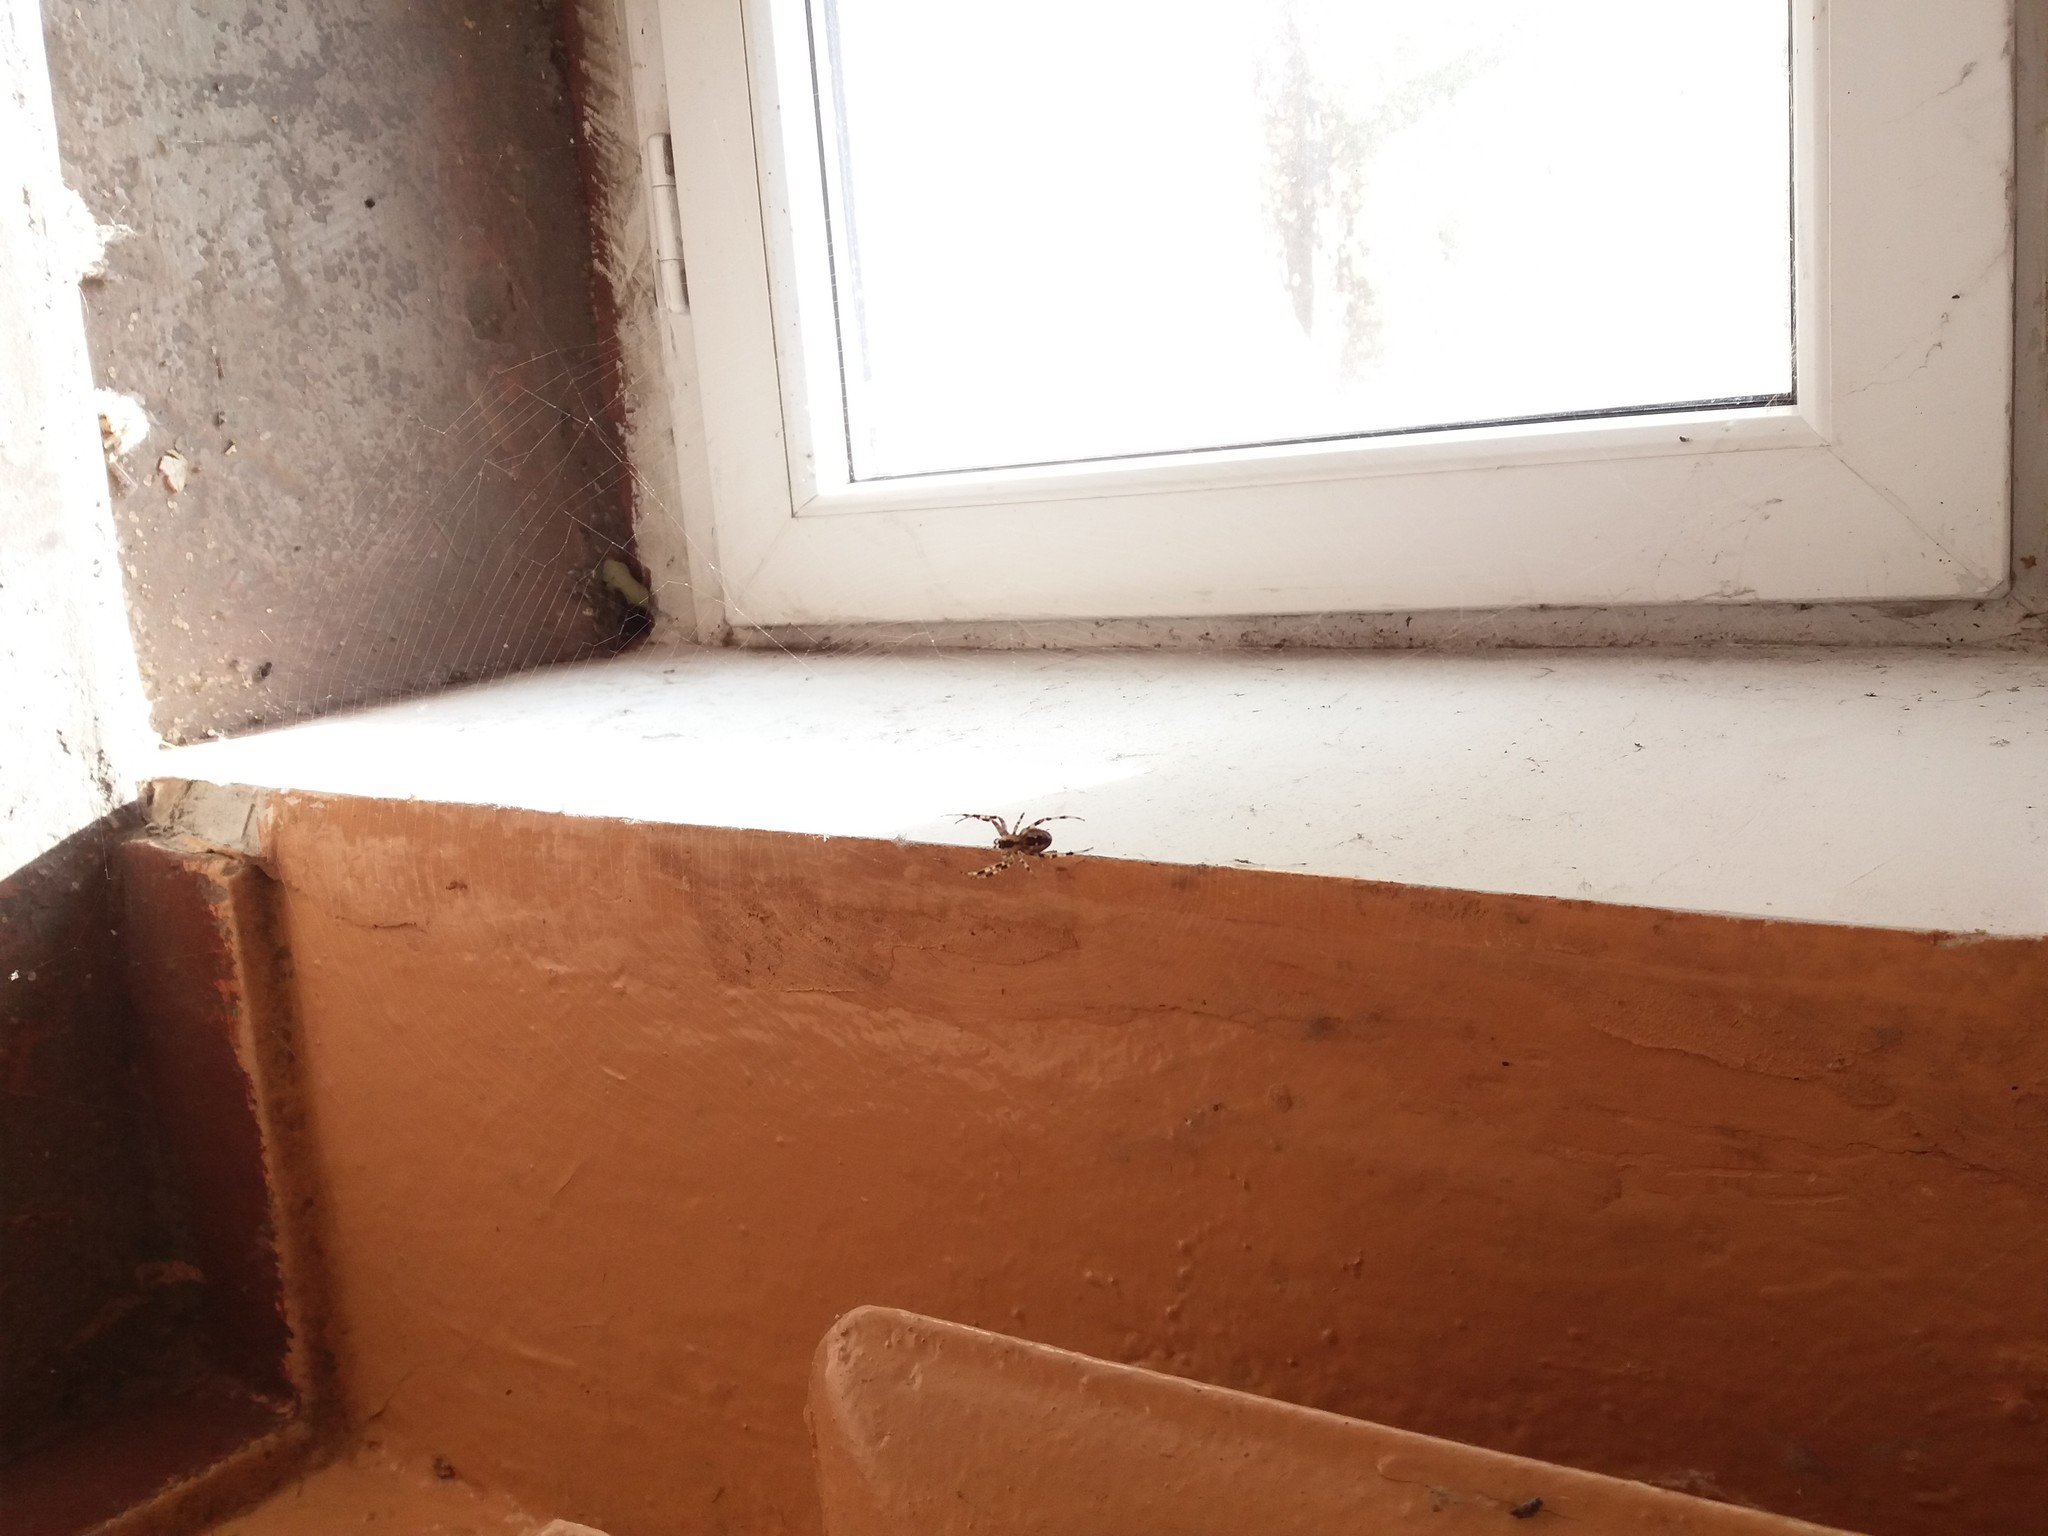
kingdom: Animalia
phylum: Arthropoda
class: Arachnida
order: Araneae
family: Araneidae
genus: Araneus
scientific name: Araneus diadematus
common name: Cross orbweaver
